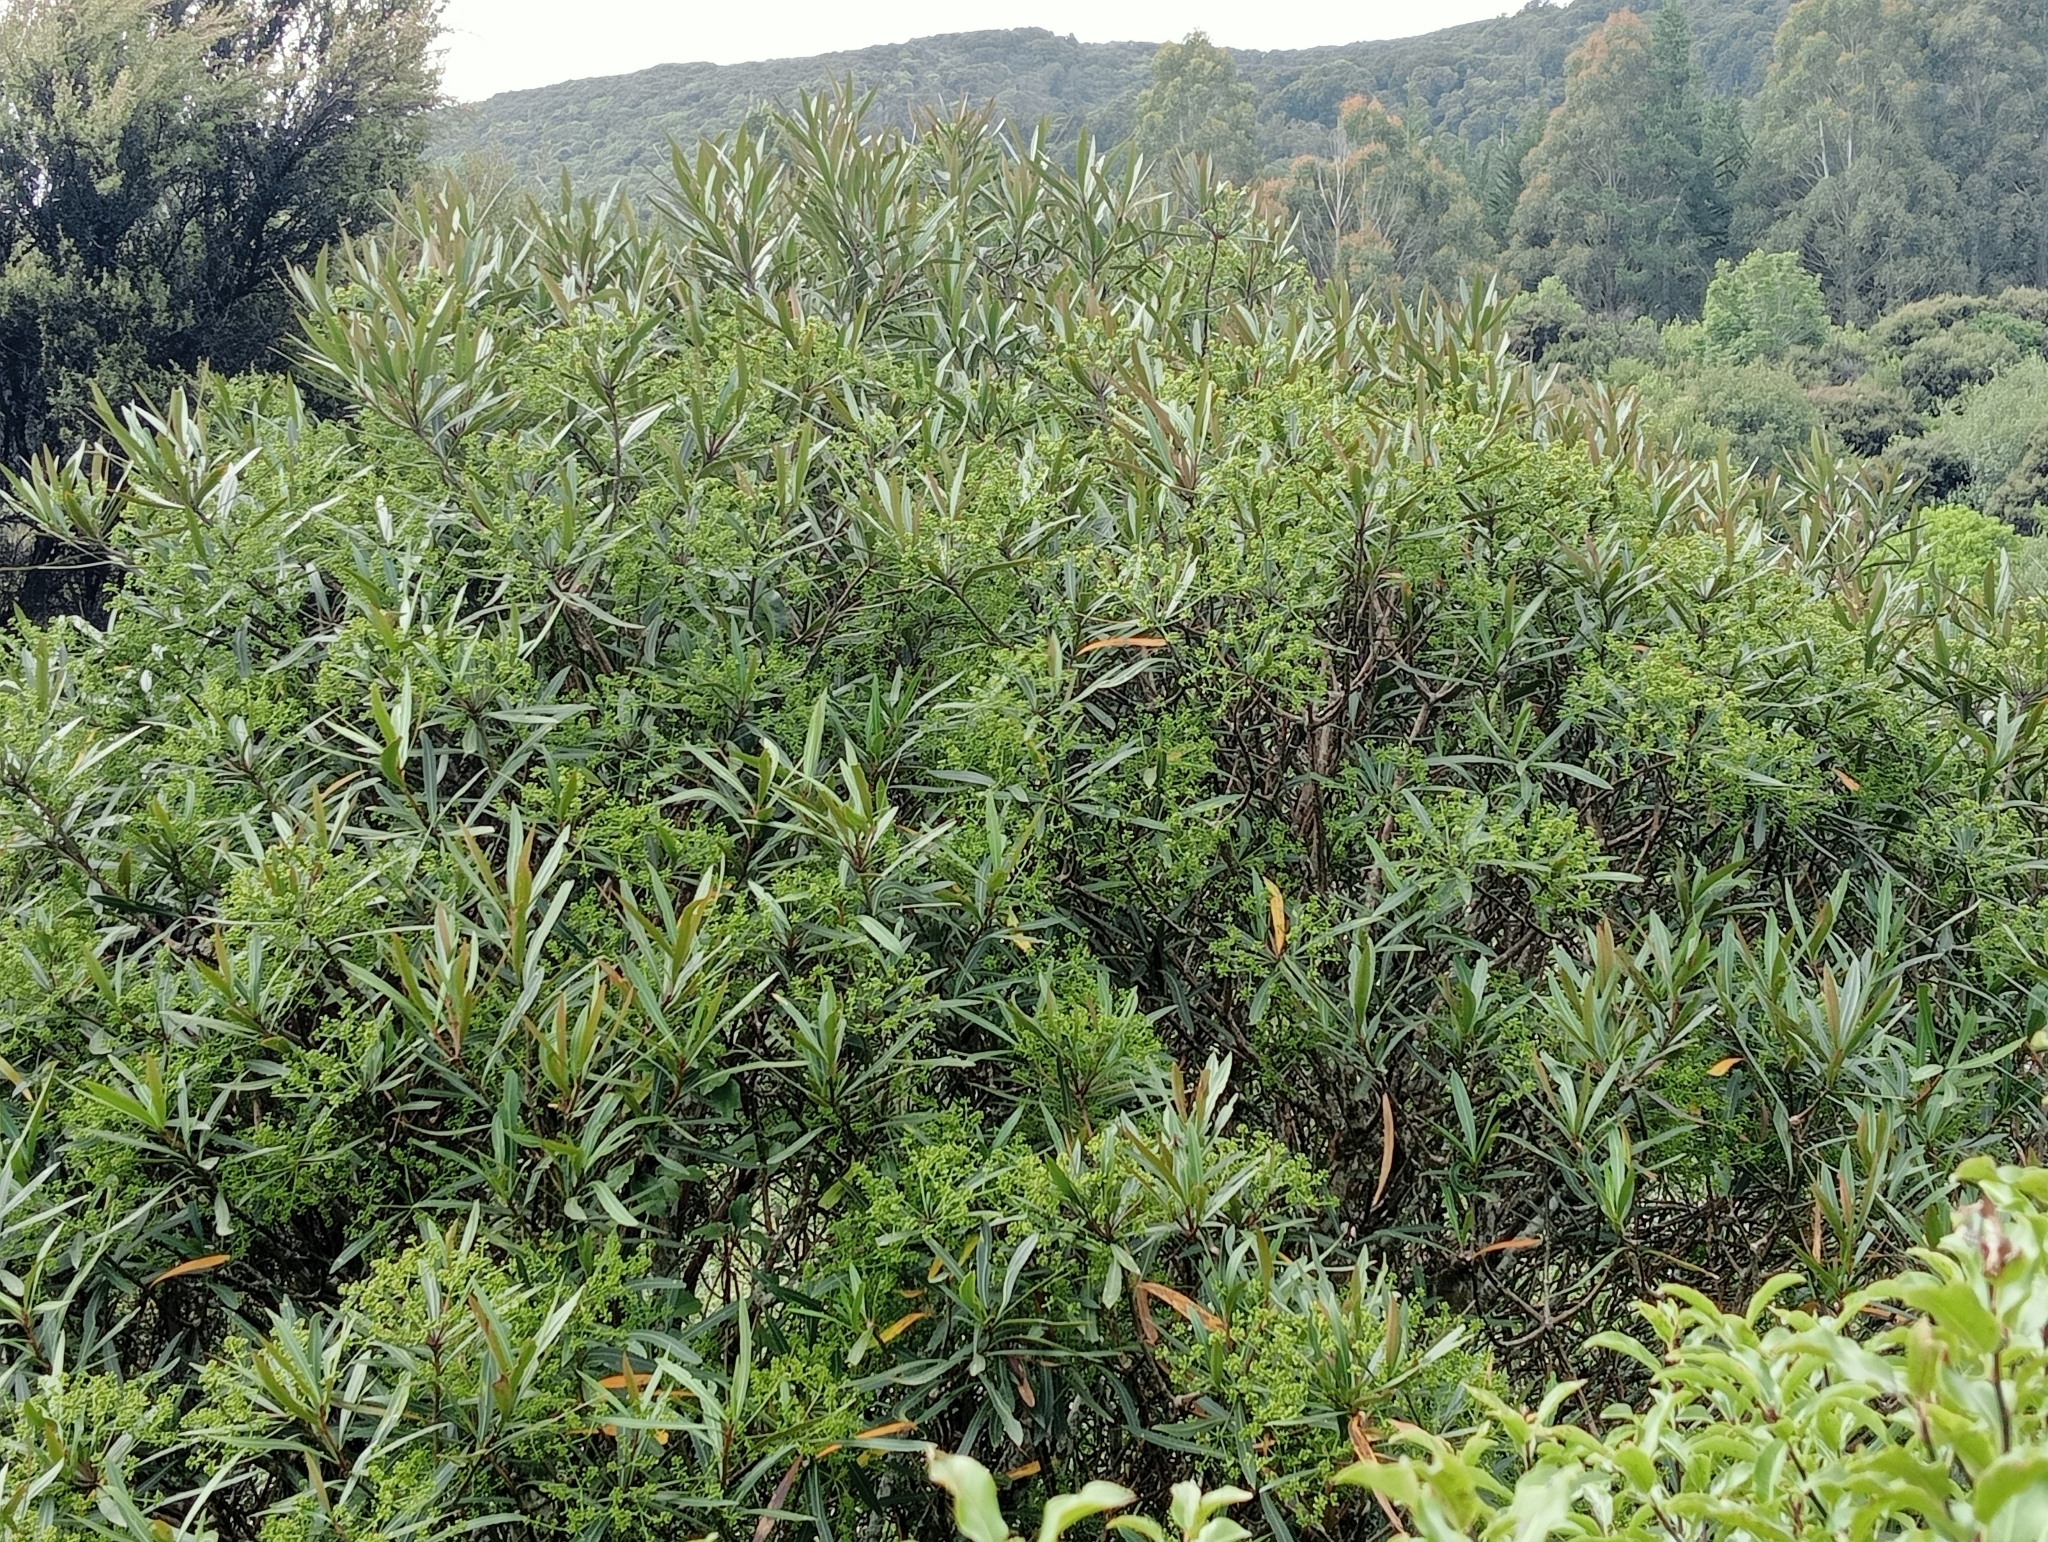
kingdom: Plantae
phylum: Tracheophyta
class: Magnoliopsida
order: Apiales
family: Araliaceae
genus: Pseudopanax
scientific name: Pseudopanax crassifolius
